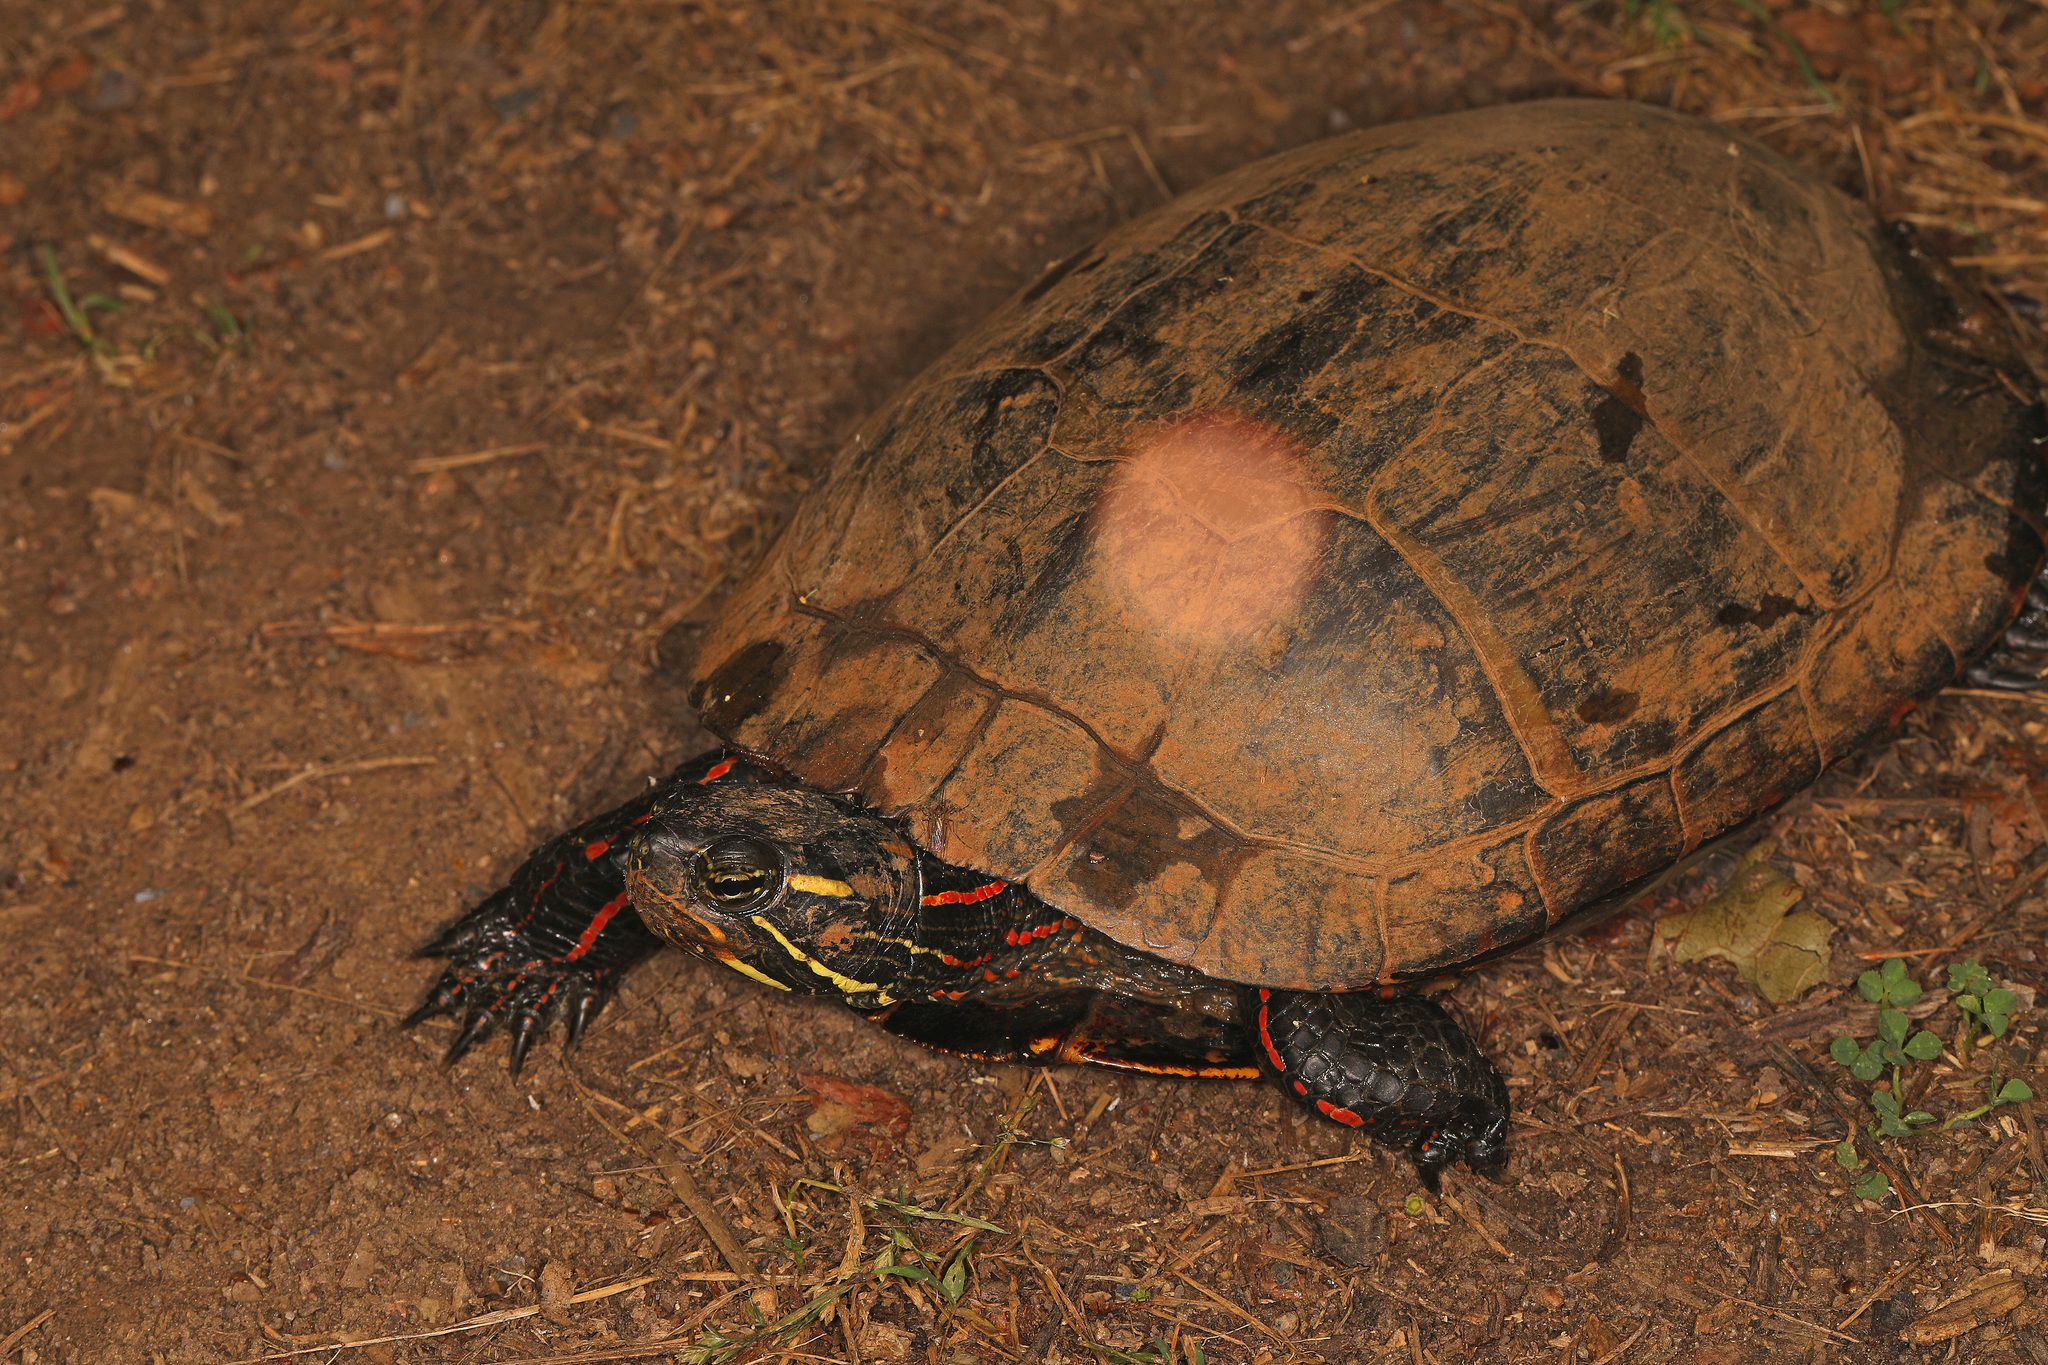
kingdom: Animalia
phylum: Chordata
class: Testudines
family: Emydidae
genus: Chrysemys
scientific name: Chrysemys picta
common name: Painted turtle
